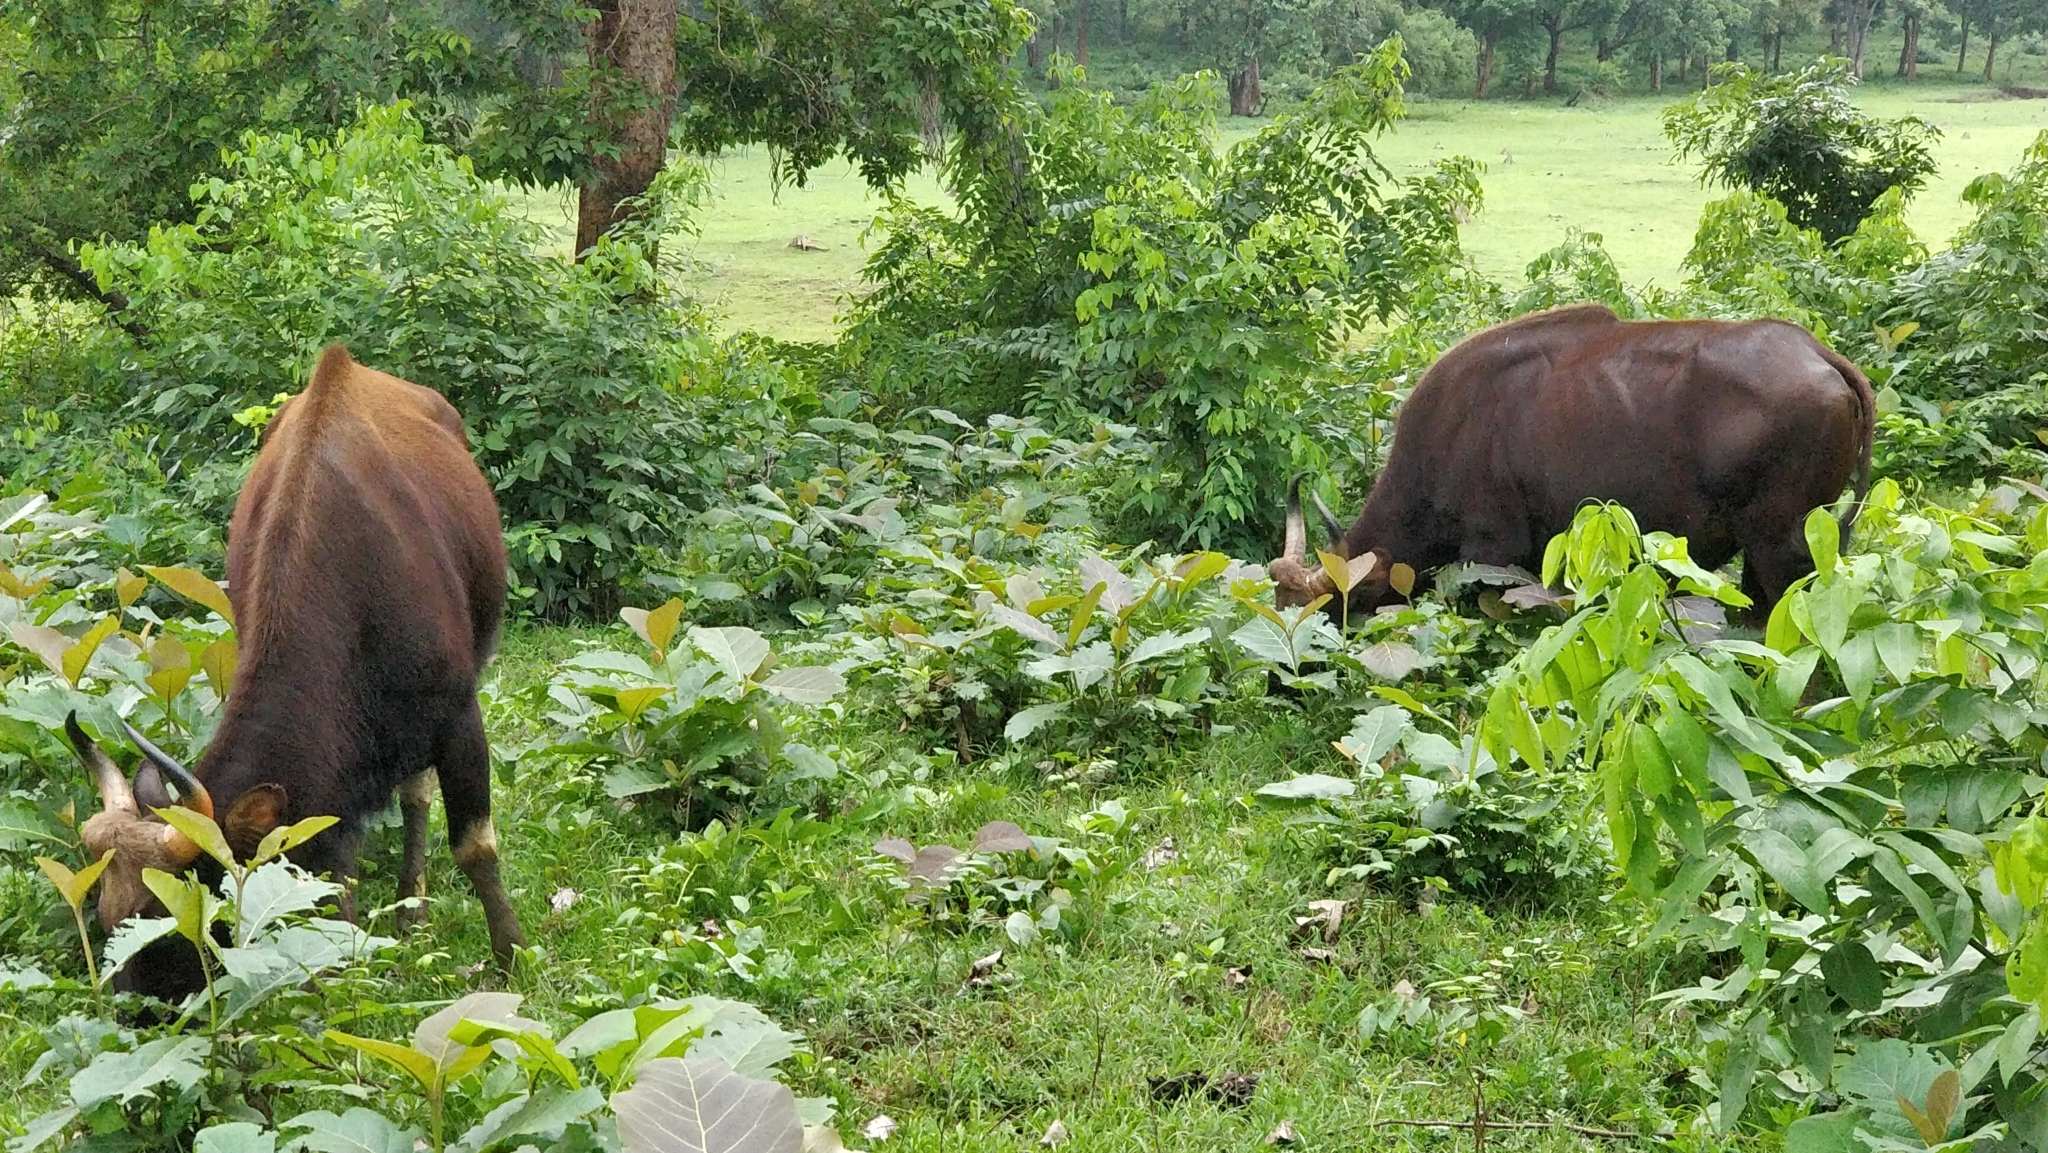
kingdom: Animalia
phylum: Chordata
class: Mammalia
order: Artiodactyla
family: Bovidae
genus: Bos
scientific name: Bos frontalis
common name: Gaur
